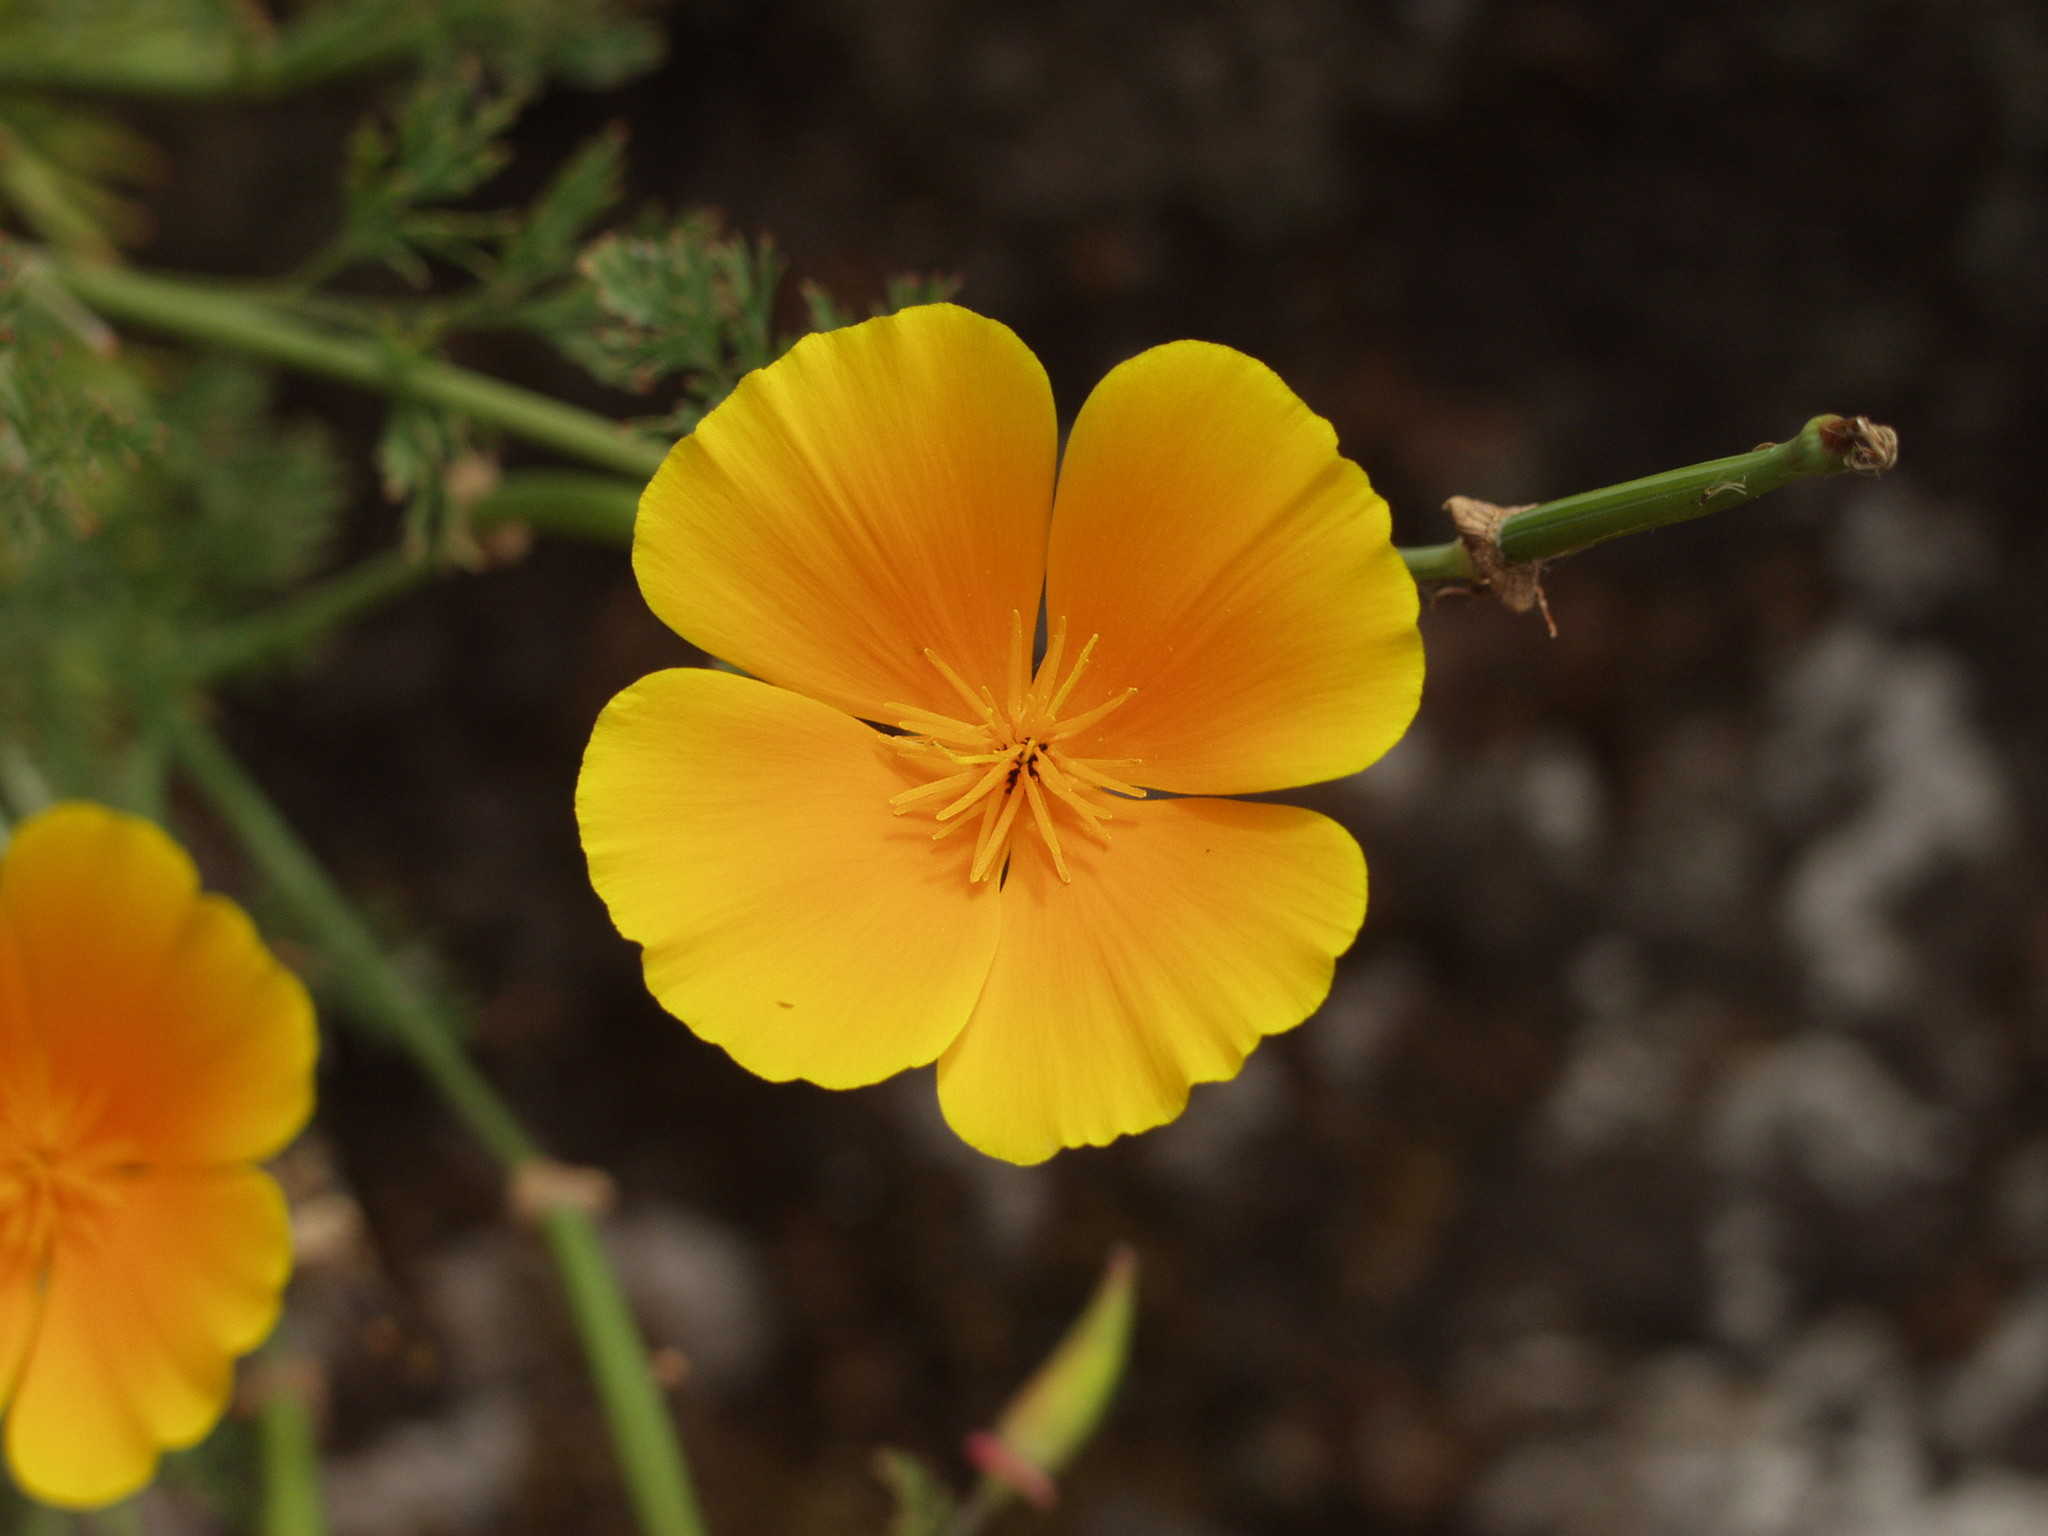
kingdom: Plantae
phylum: Tracheophyta
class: Magnoliopsida
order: Ranunculales
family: Papaveraceae
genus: Eschscholzia
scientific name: Eschscholzia californica
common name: California poppy
